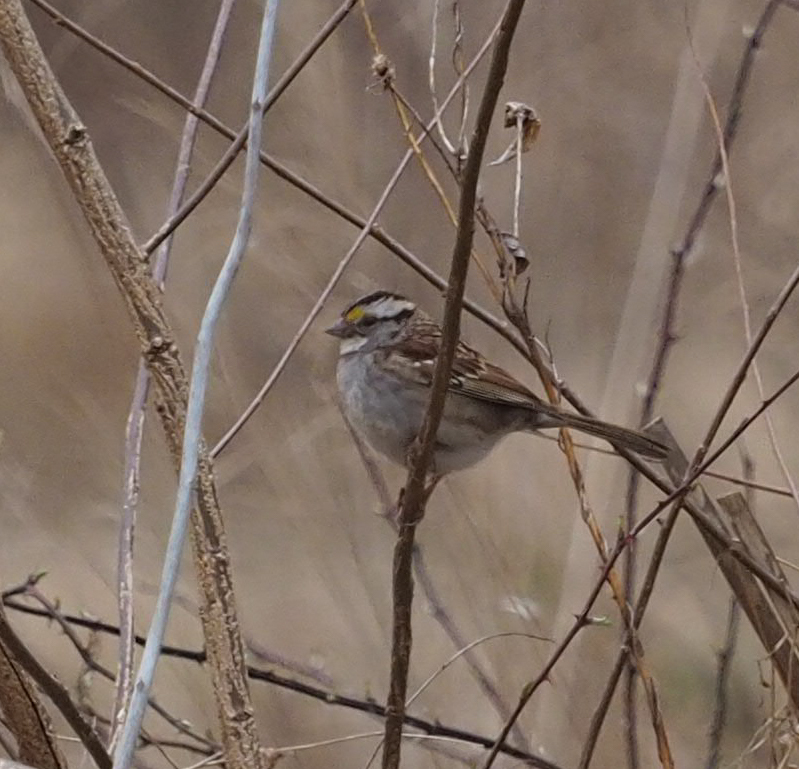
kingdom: Animalia
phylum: Chordata
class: Aves
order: Passeriformes
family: Passerellidae
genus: Zonotrichia
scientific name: Zonotrichia albicollis
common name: White-throated sparrow
